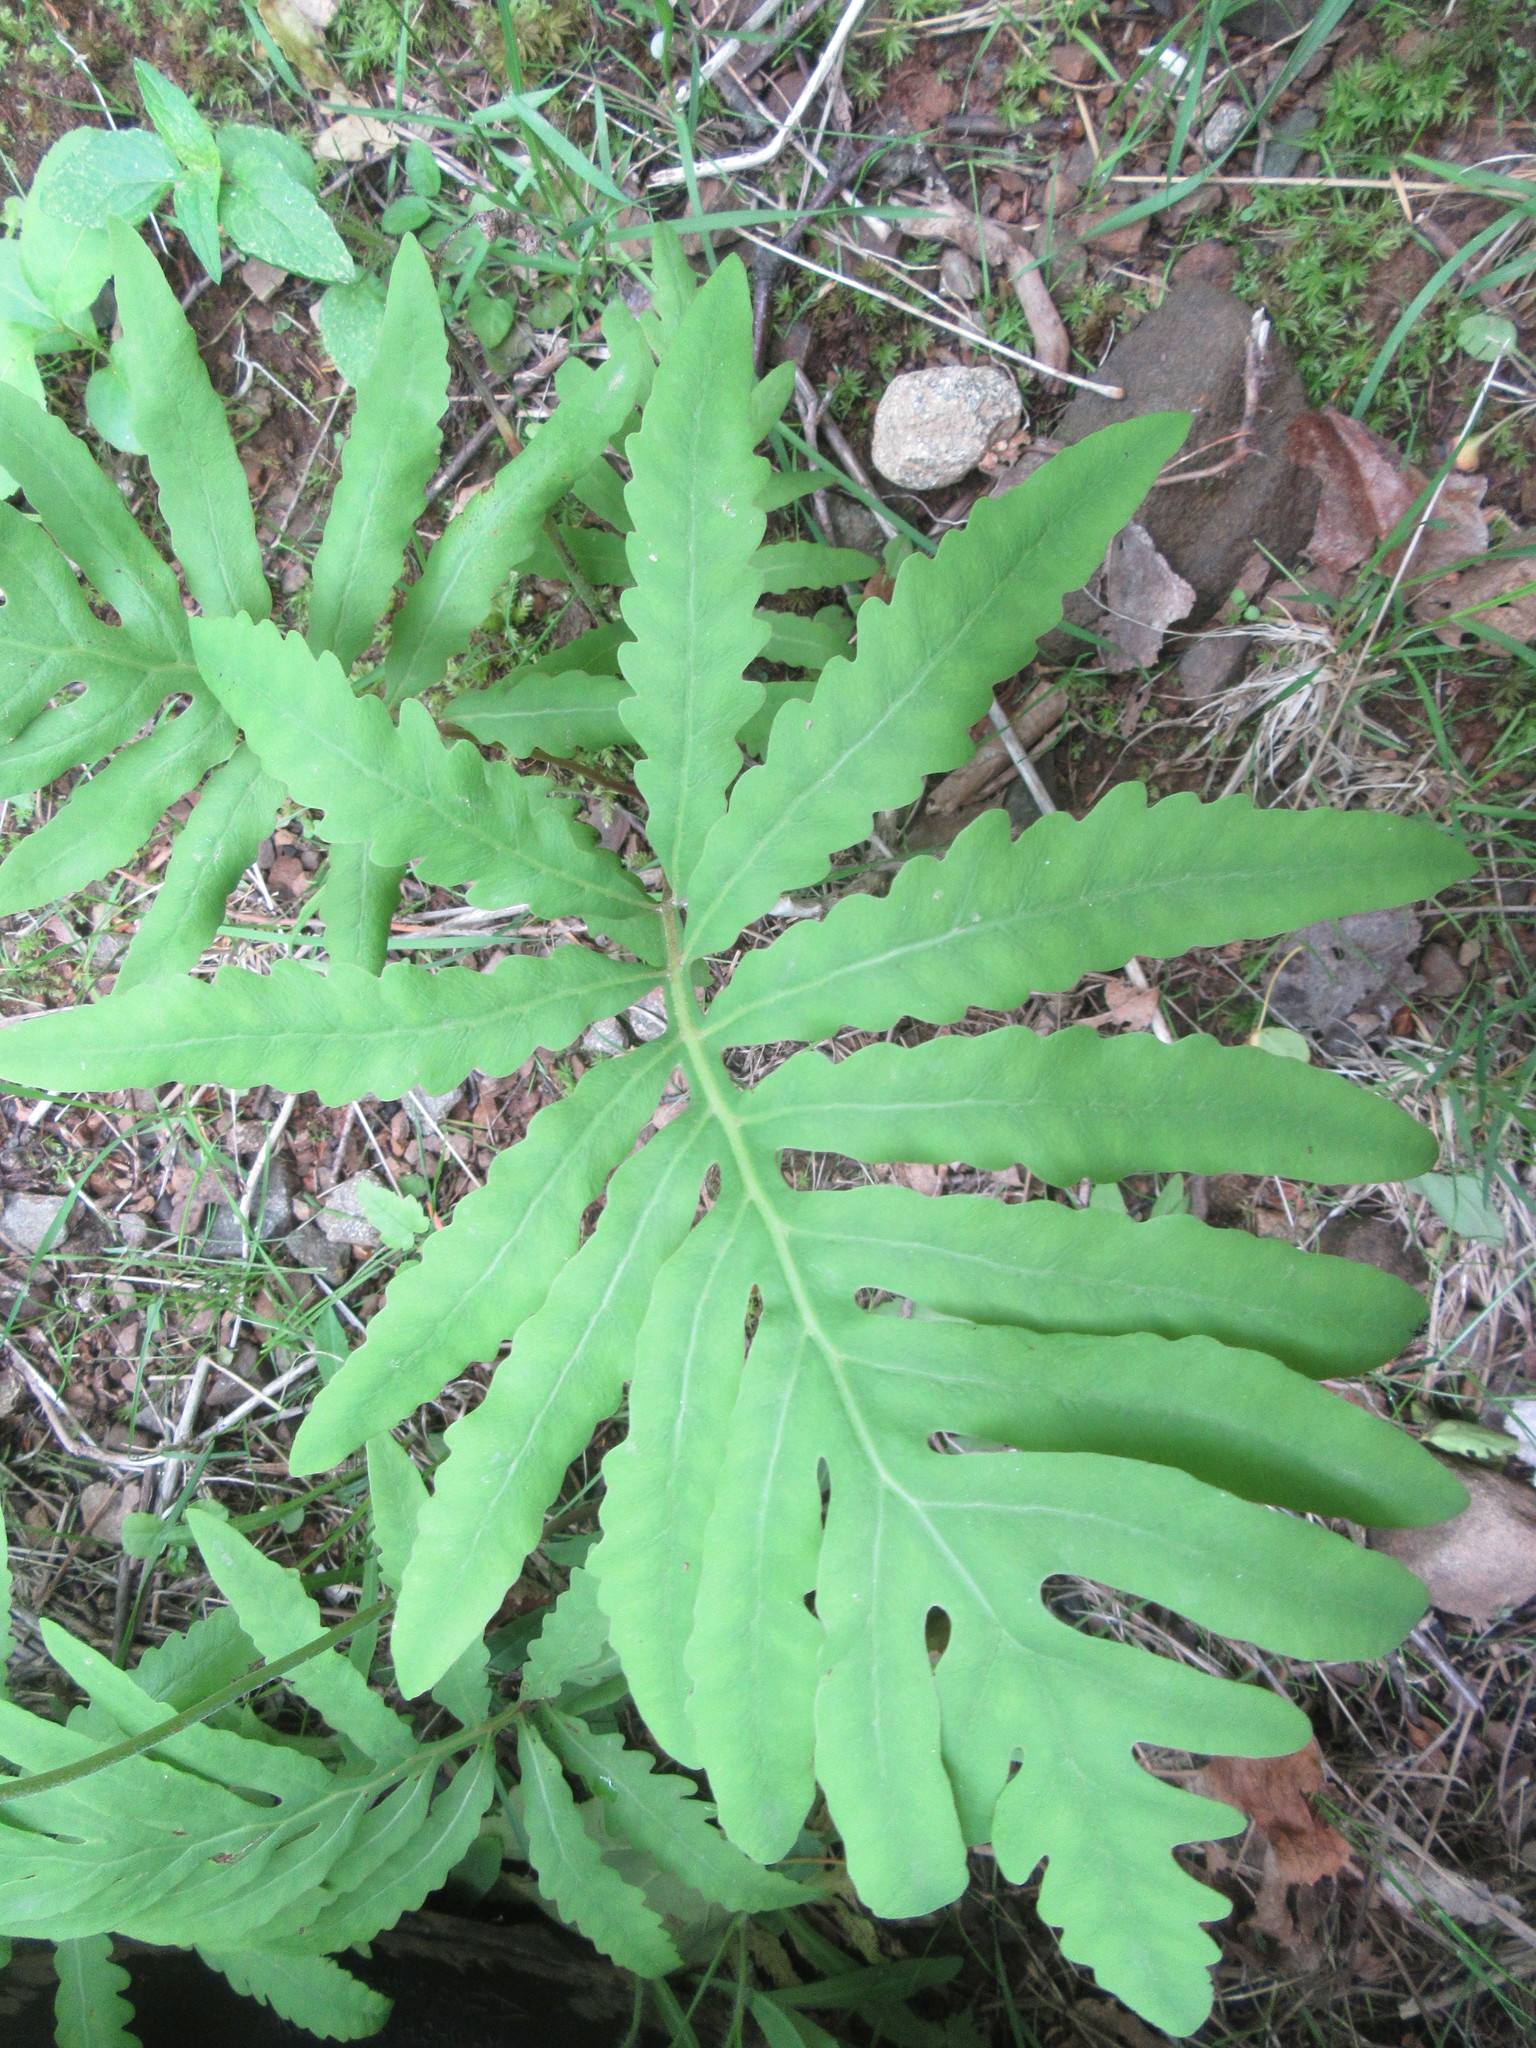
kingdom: Plantae
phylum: Tracheophyta
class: Polypodiopsida
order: Polypodiales
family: Onocleaceae
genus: Onoclea
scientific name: Onoclea sensibilis
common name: Sensitive fern
